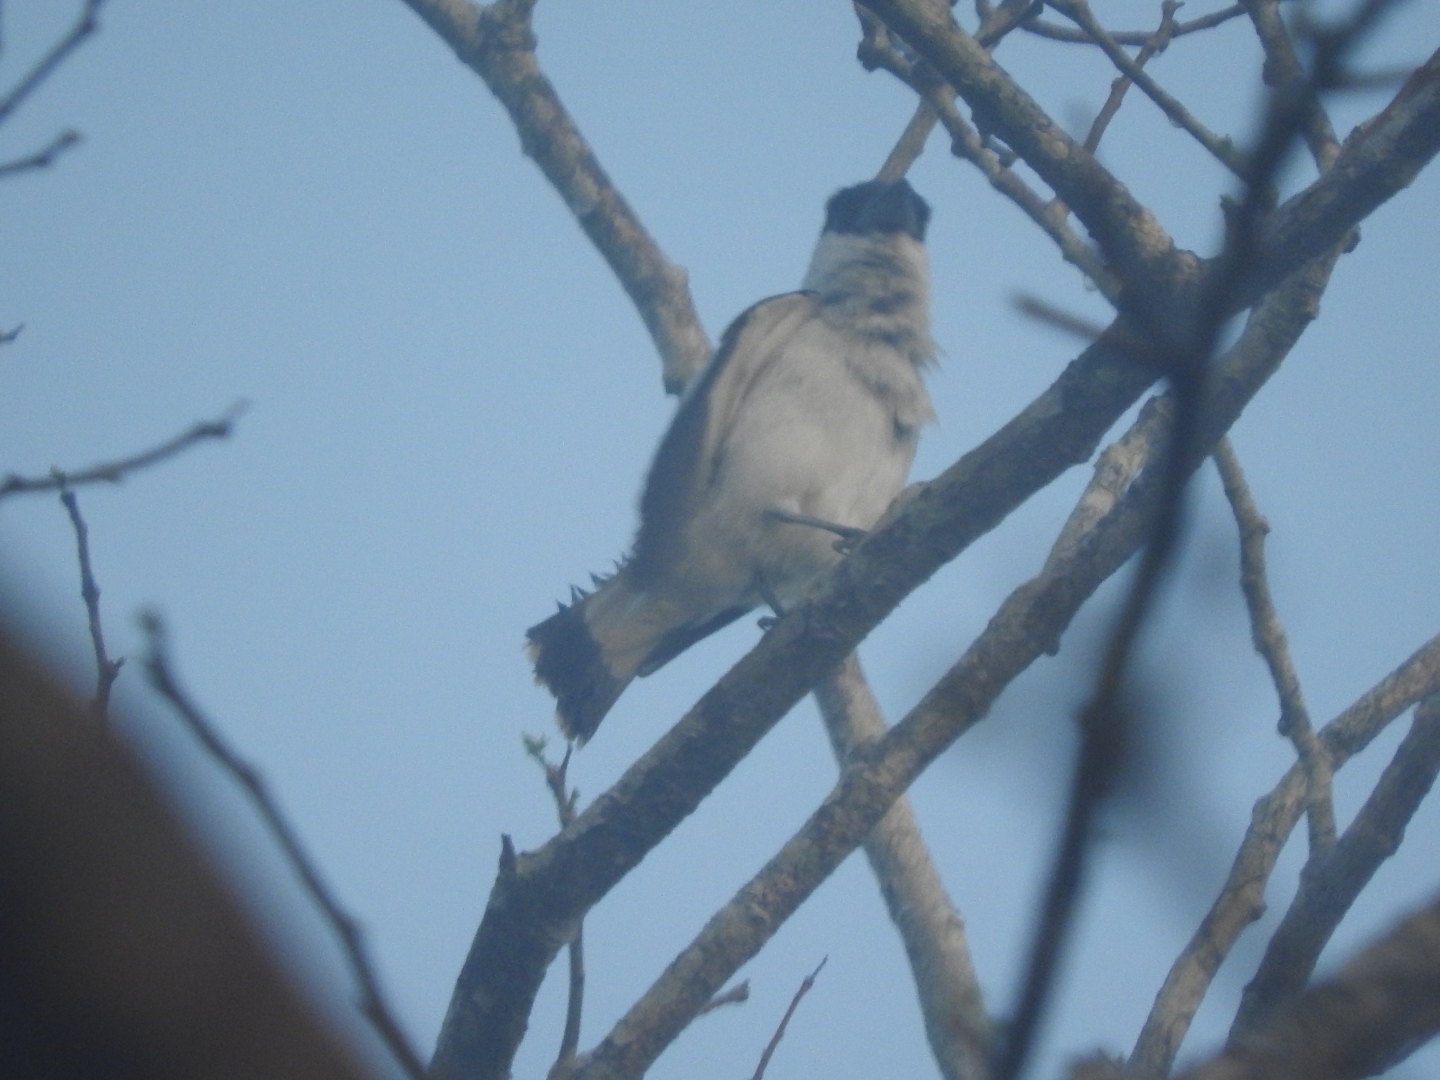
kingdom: Animalia
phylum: Chordata
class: Aves
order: Passeriformes
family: Cotingidae
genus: Tityra
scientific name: Tityra inquisitor
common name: Black-crowned tityra
